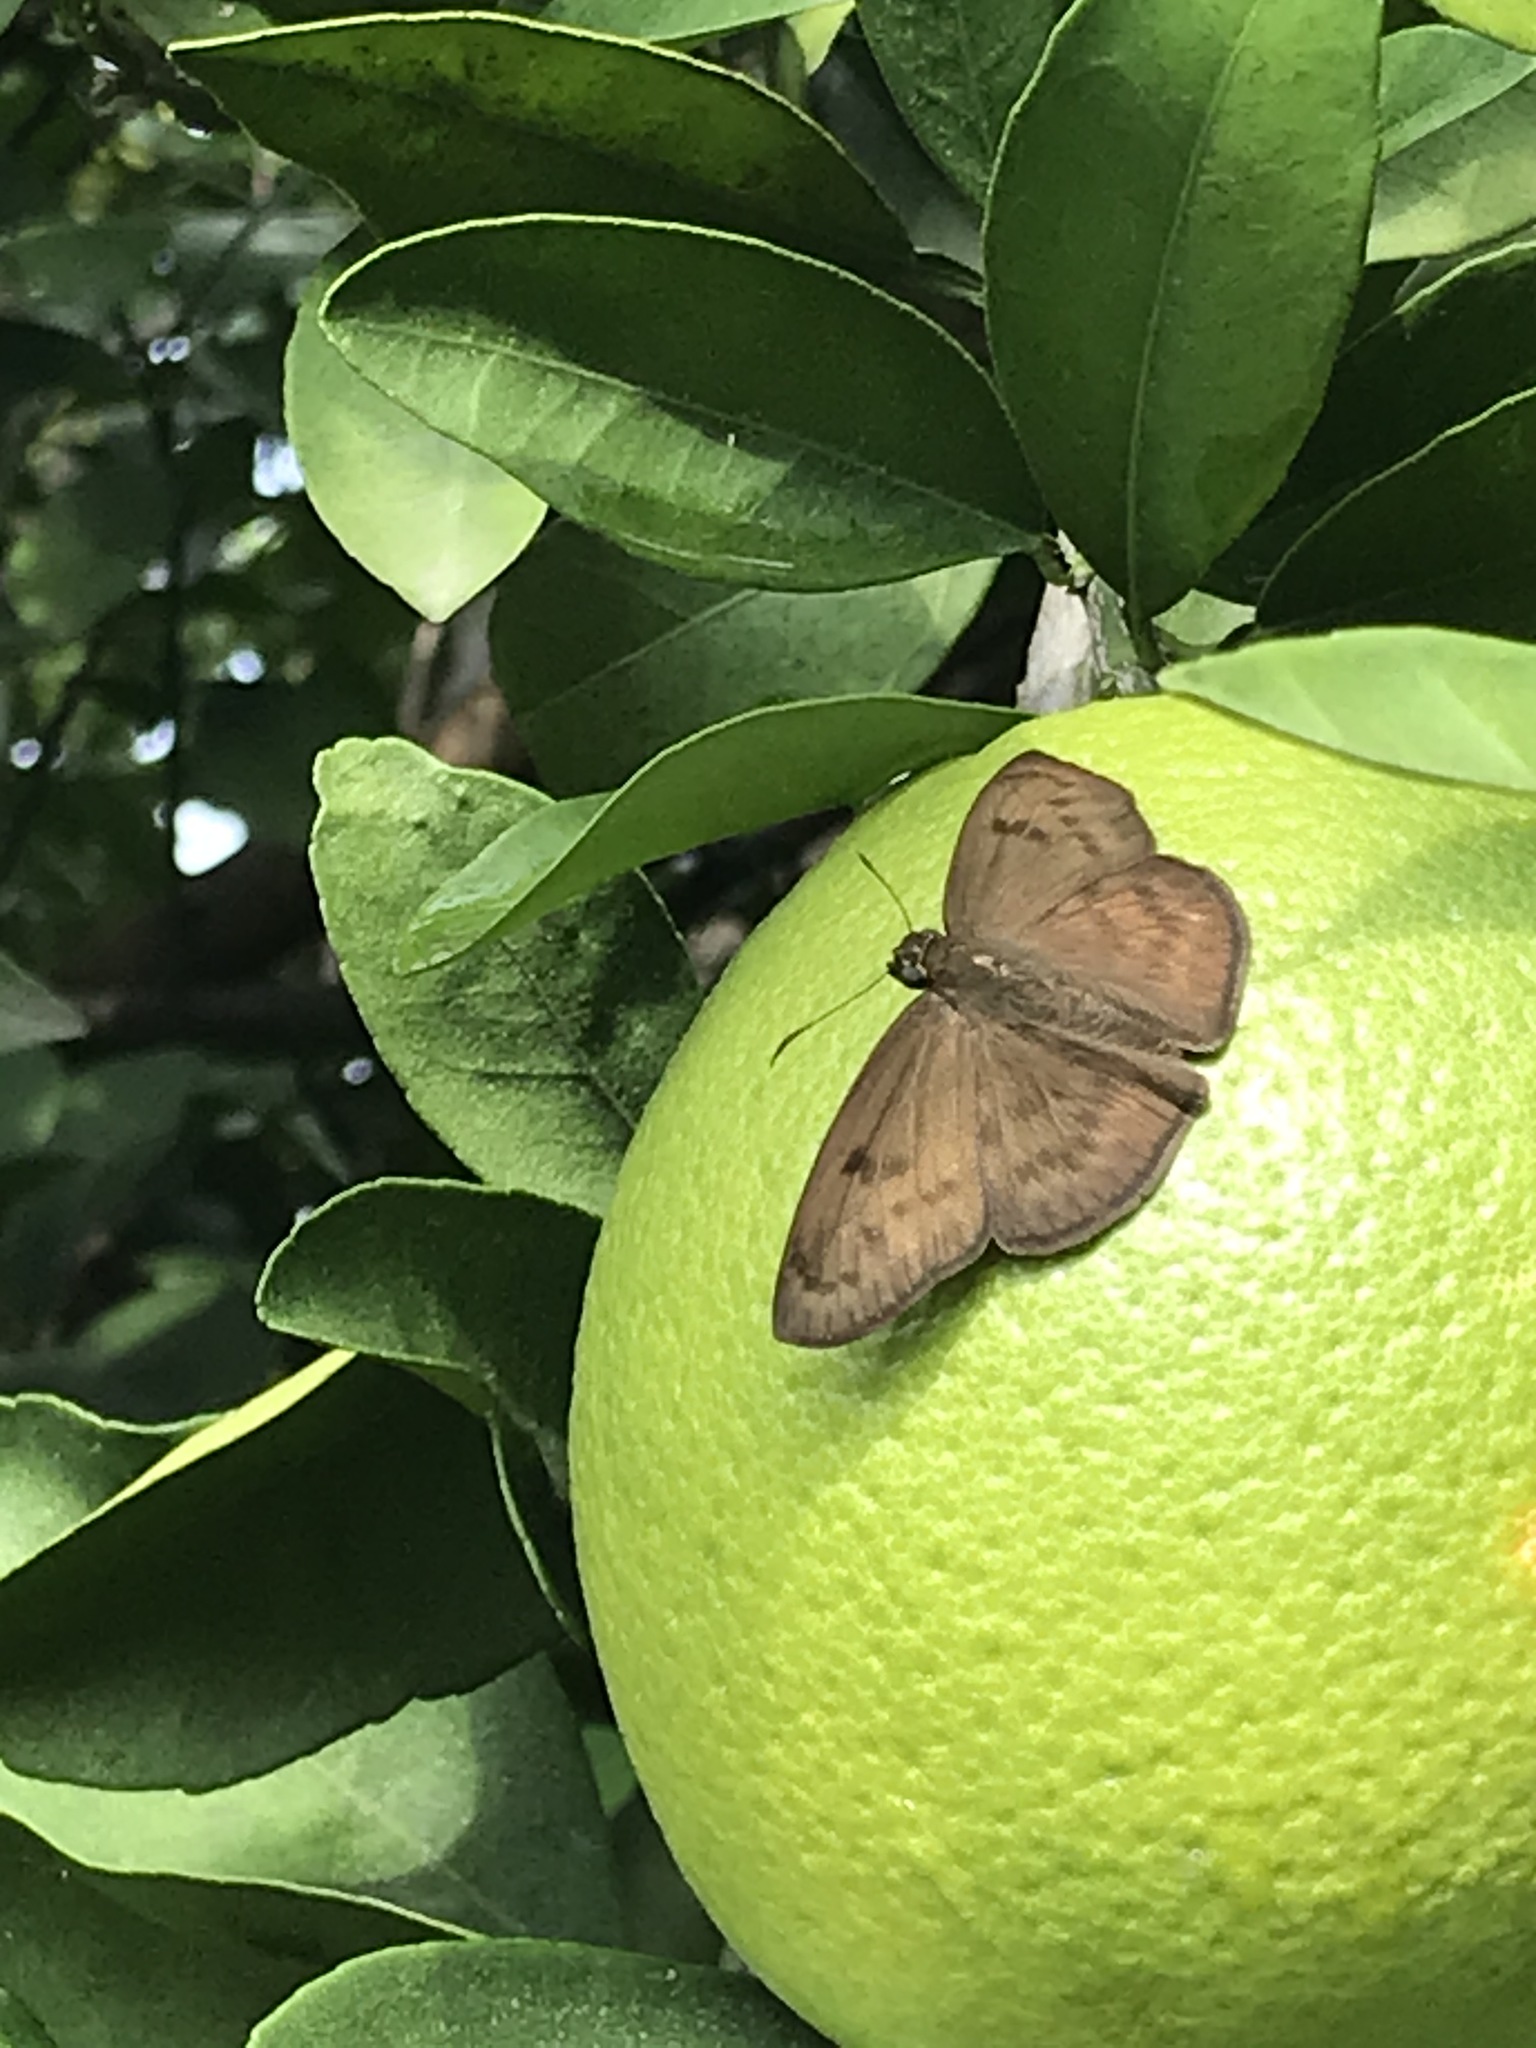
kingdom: Animalia
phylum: Arthropoda
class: Insecta
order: Lepidoptera
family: Hesperiidae
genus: Grais
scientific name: Grais stigmaticus
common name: Hermit skipper
